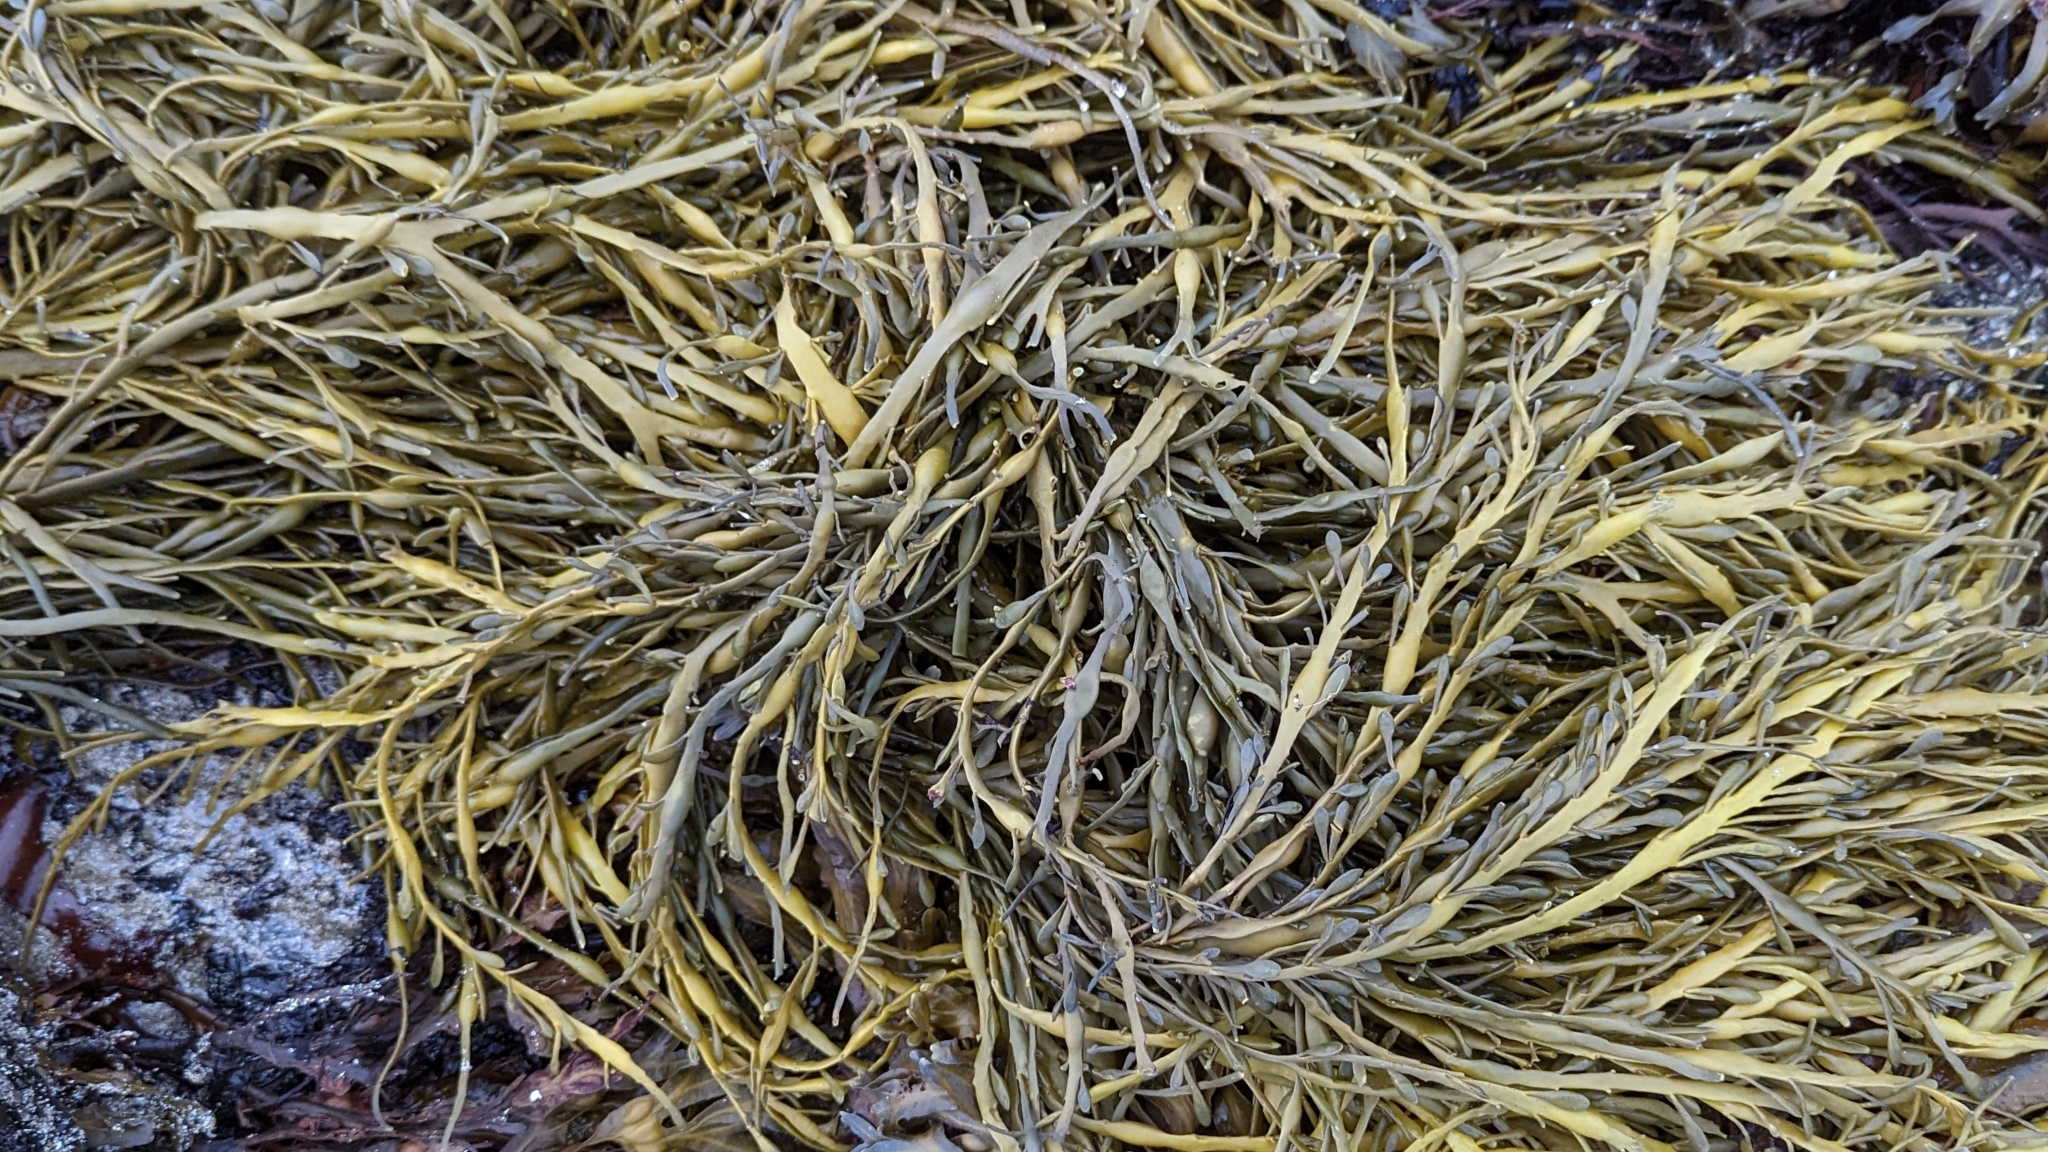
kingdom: Chromista
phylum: Ochrophyta
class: Phaeophyceae
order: Fucales
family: Fucaceae
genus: Ascophyllum
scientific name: Ascophyllum nodosum
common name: Knotted wrack
